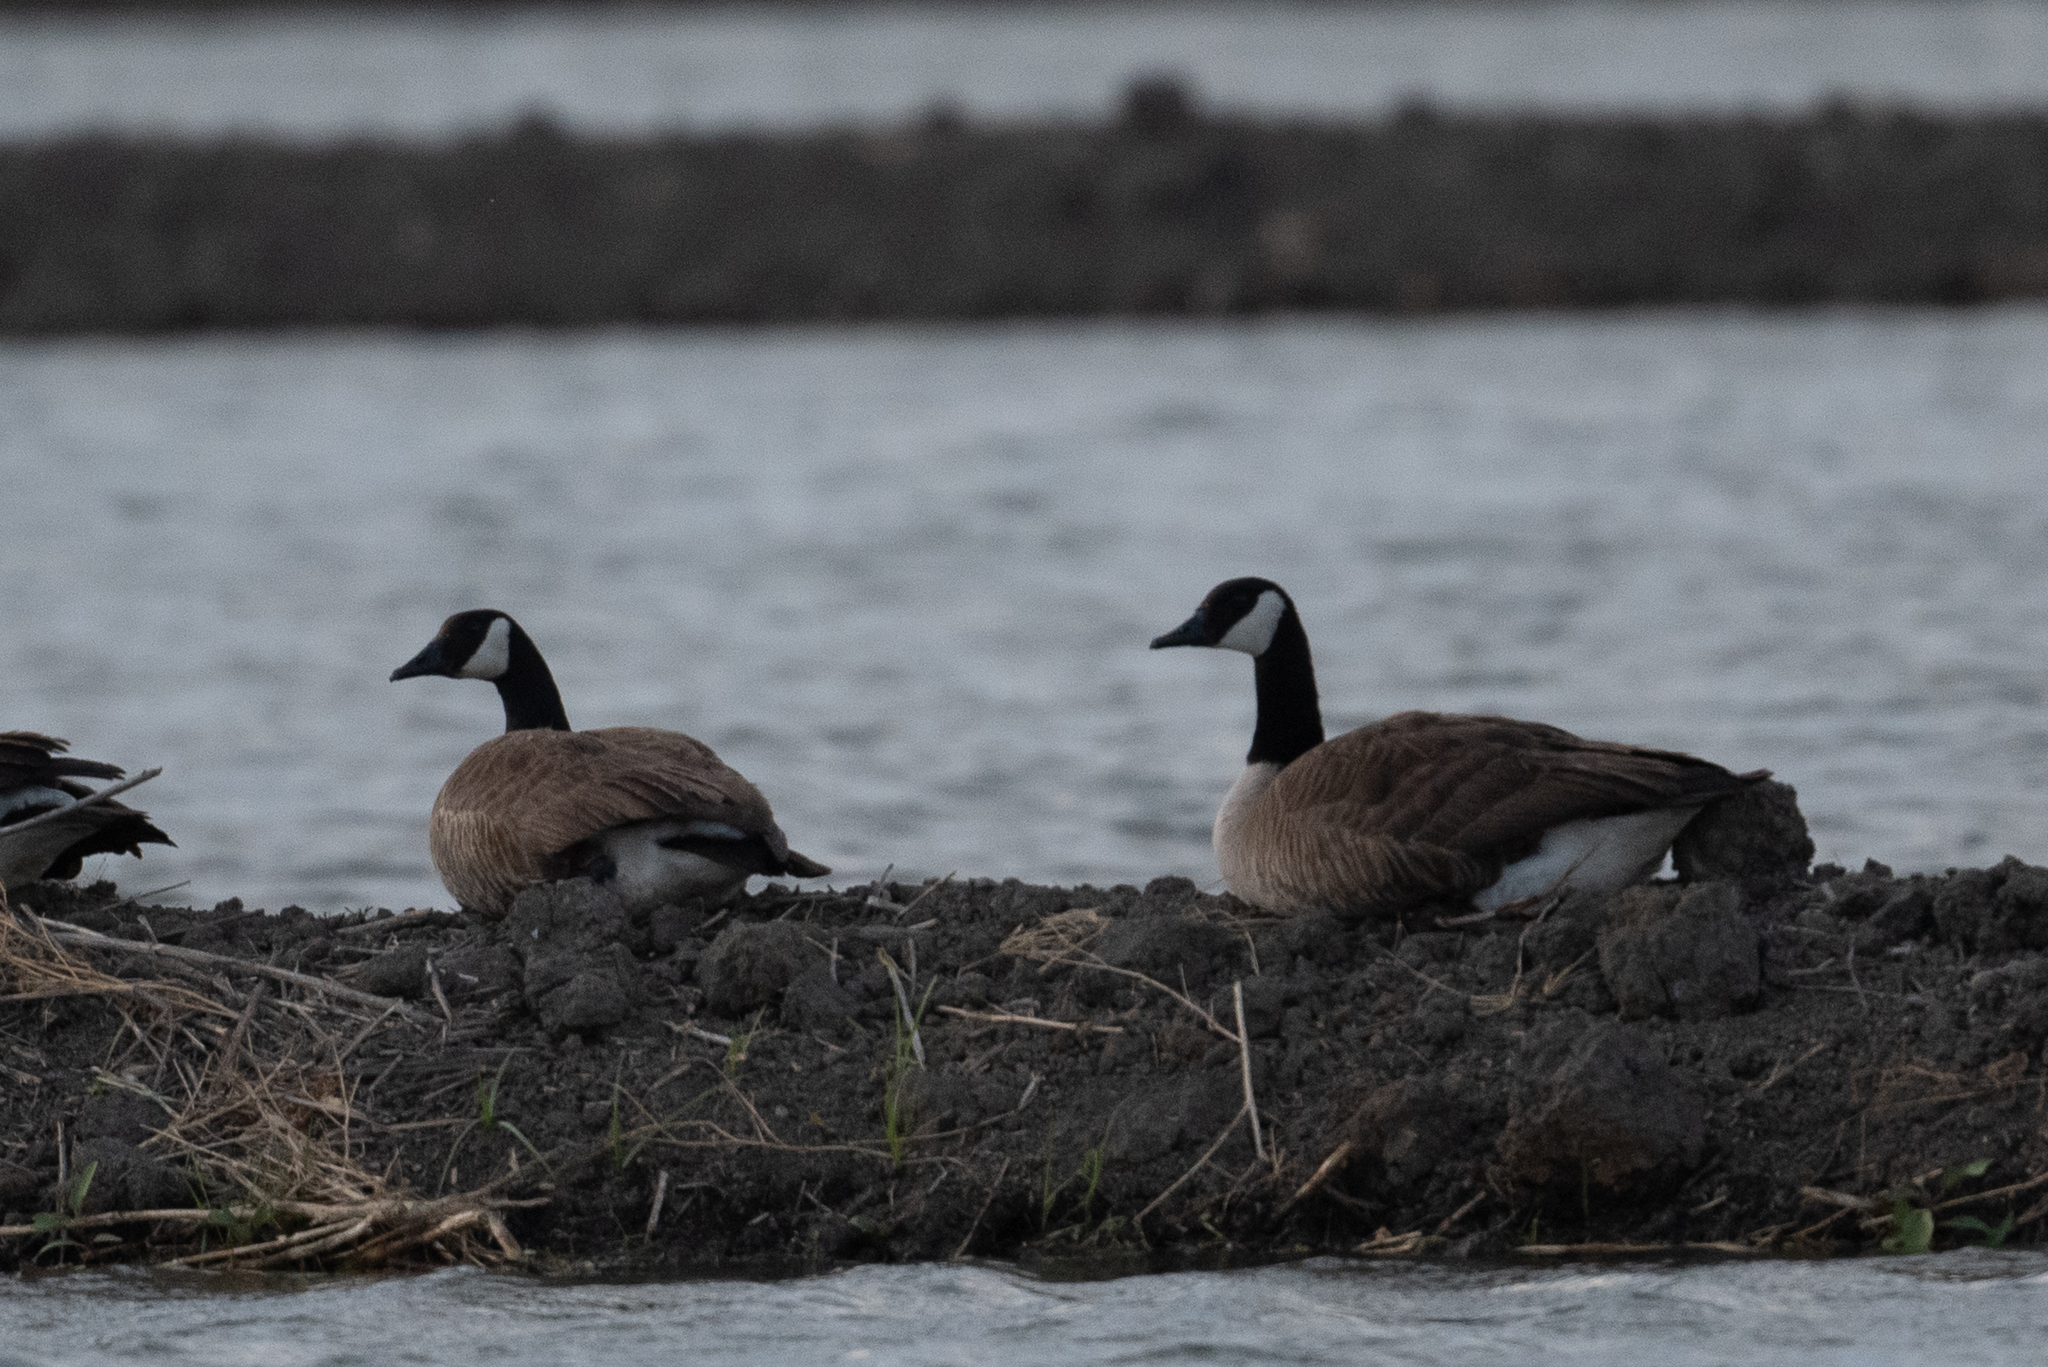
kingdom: Animalia
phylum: Chordata
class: Aves
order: Anseriformes
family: Anatidae
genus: Branta
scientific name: Branta canadensis
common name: Canada goose
